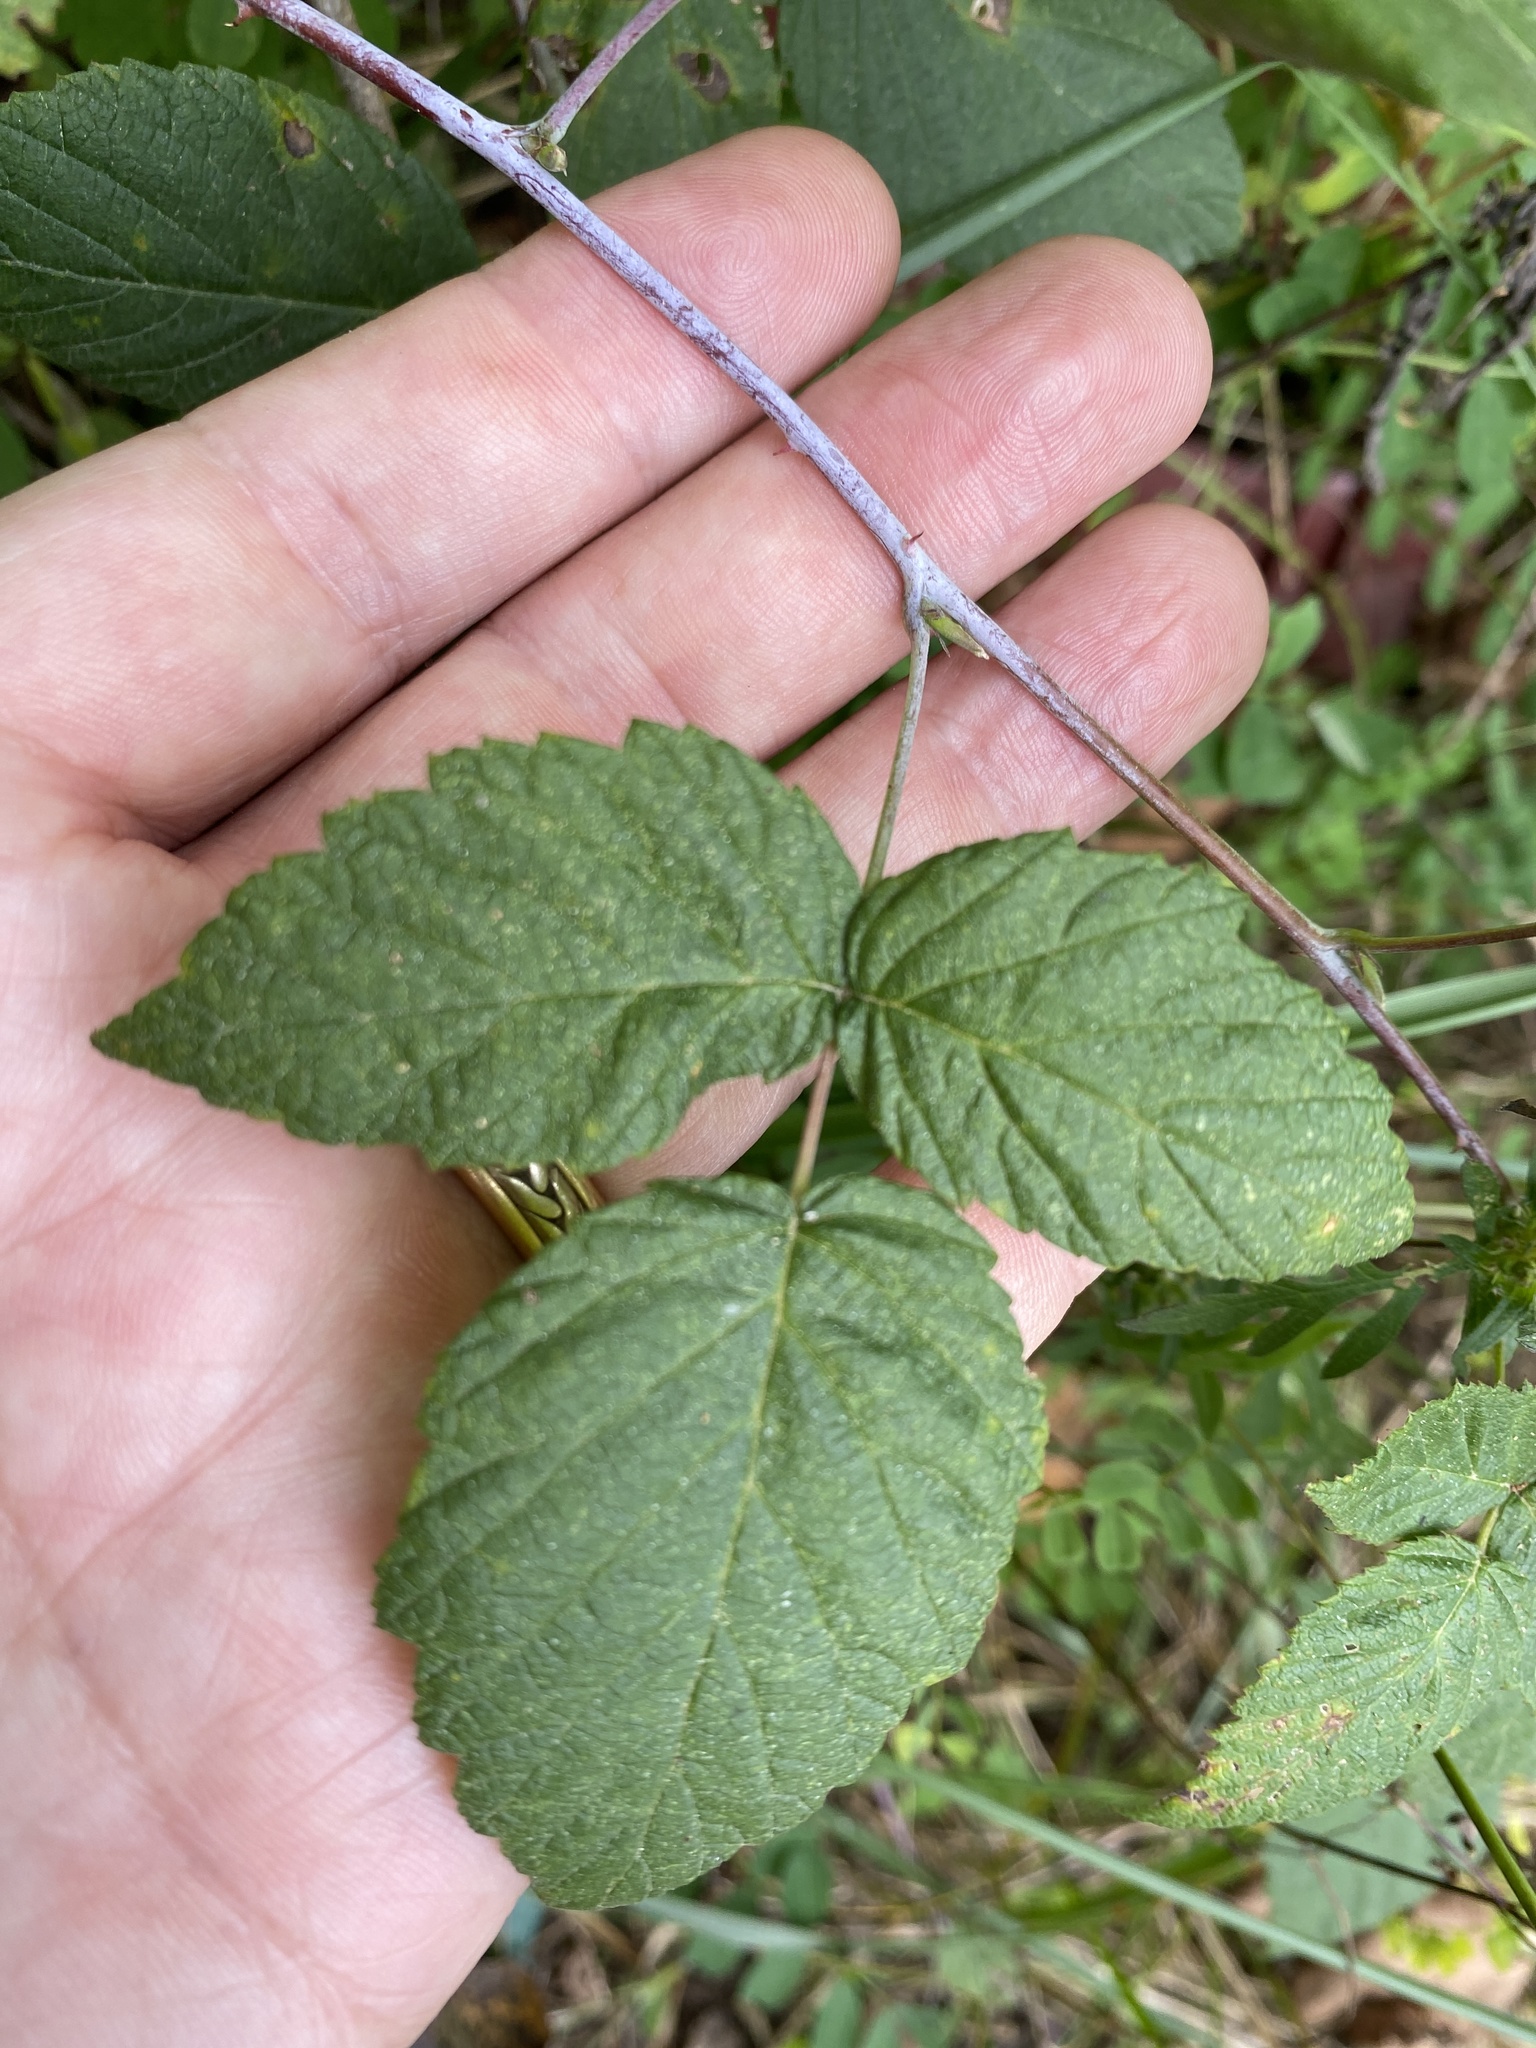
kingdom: Plantae
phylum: Tracheophyta
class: Magnoliopsida
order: Rosales
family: Rosaceae
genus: Rubus
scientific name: Rubus occidentalis
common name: Black raspberry
